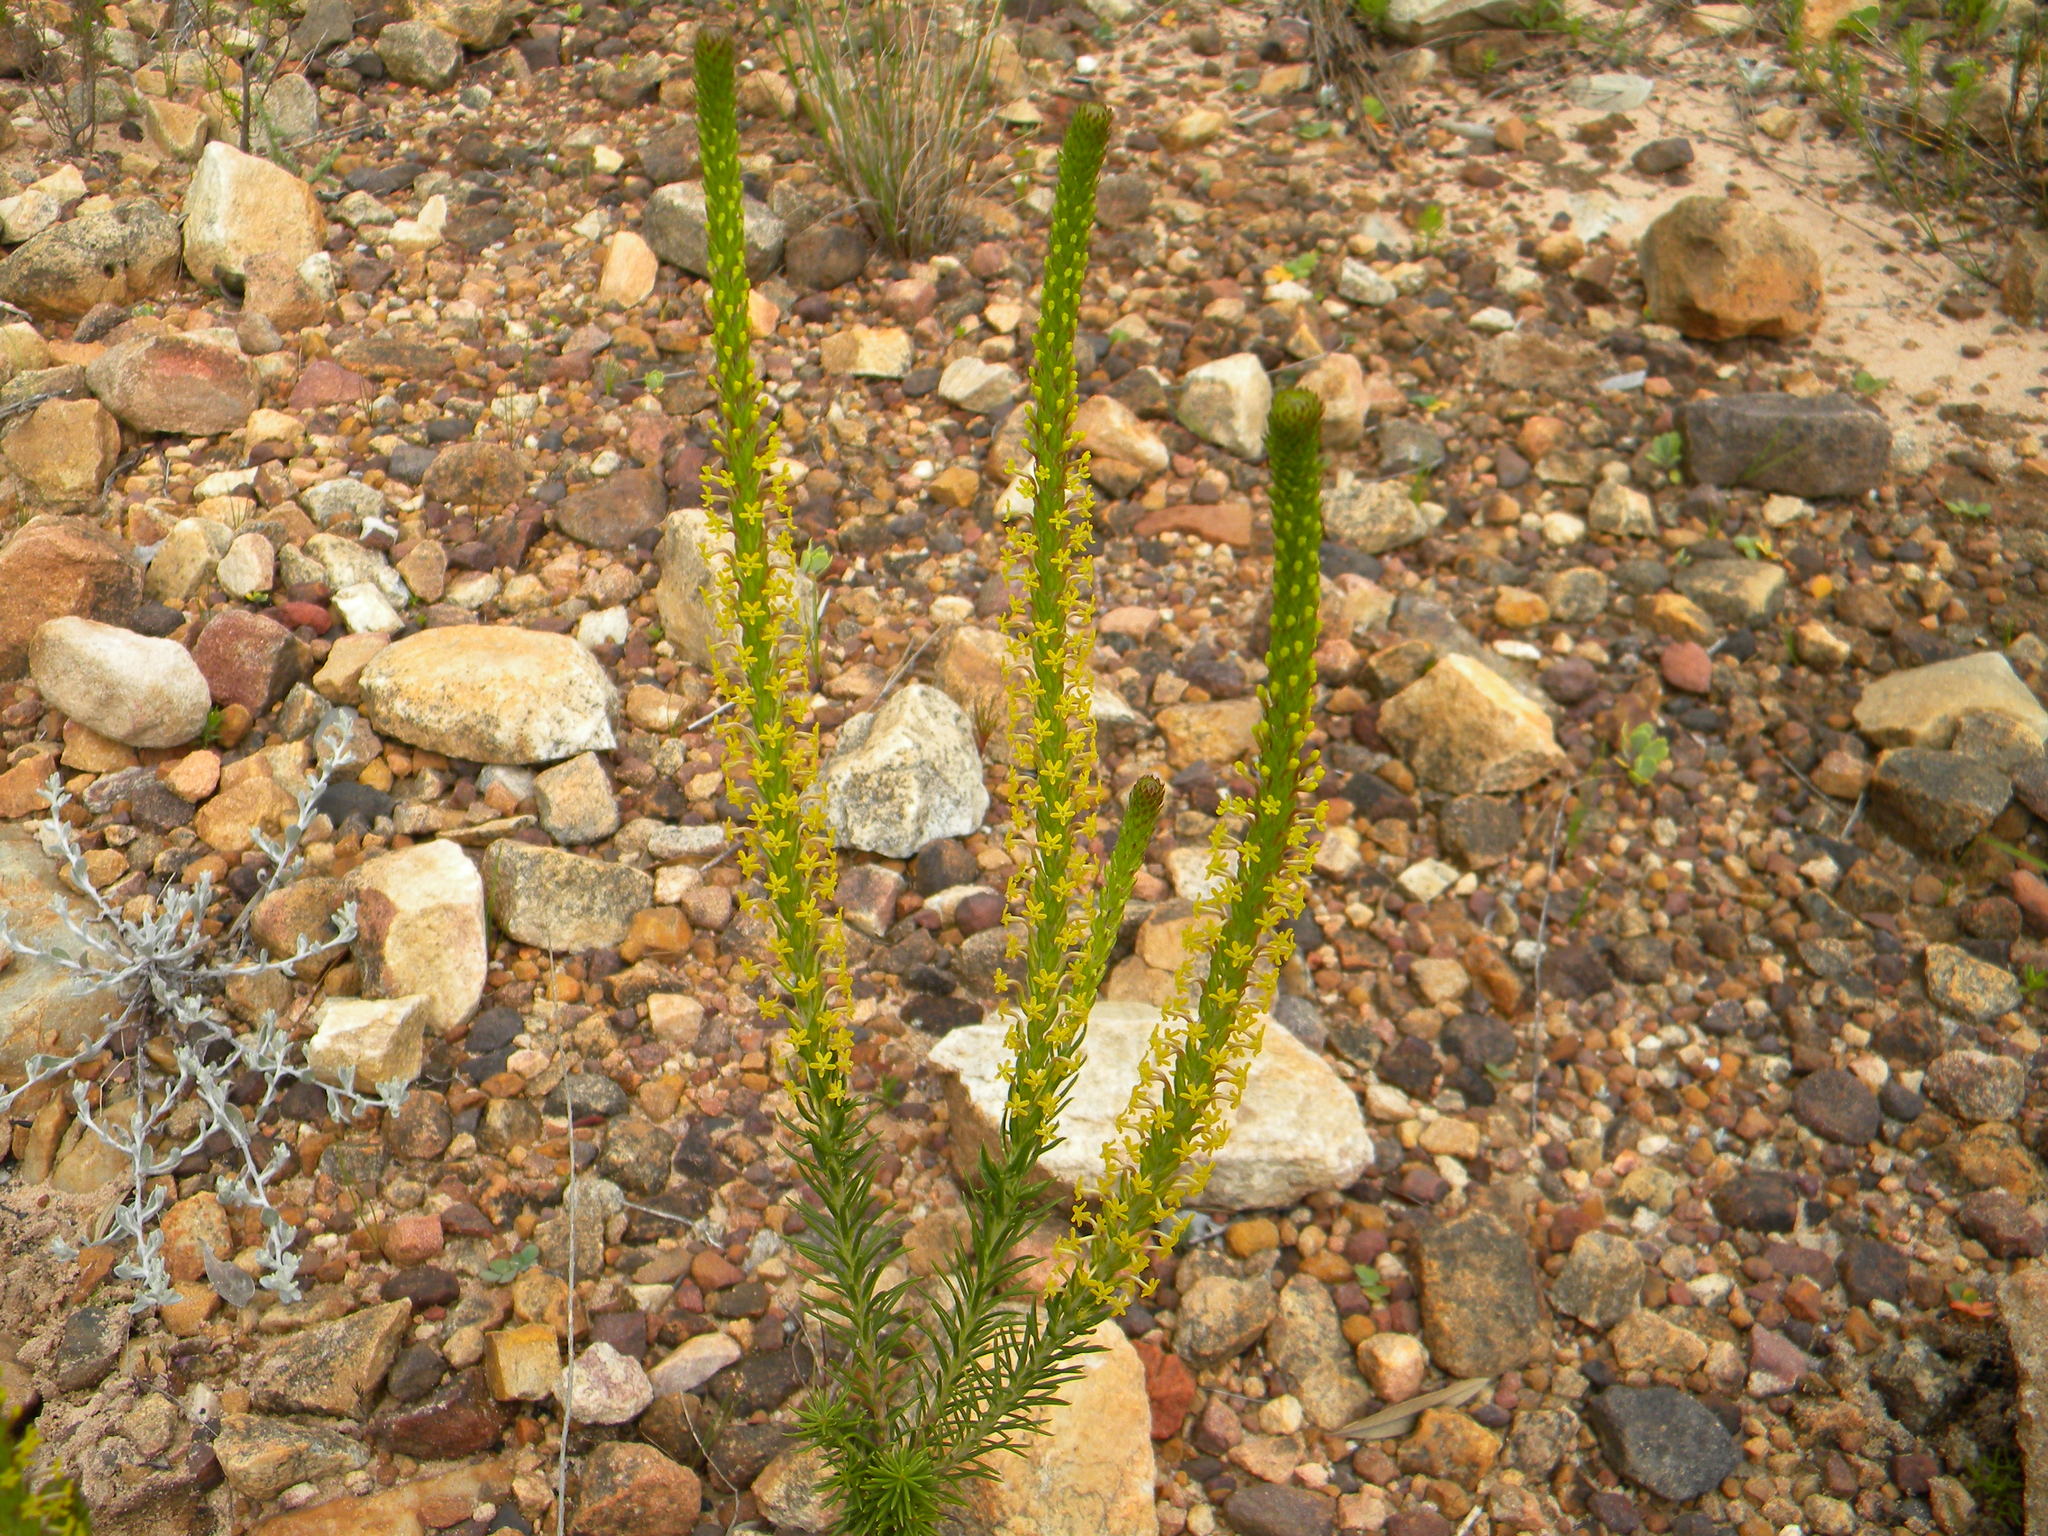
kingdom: Plantae
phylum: Tracheophyta
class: Magnoliopsida
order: Lamiales
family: Scrophulariaceae
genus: Microdon
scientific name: Microdon dubius
